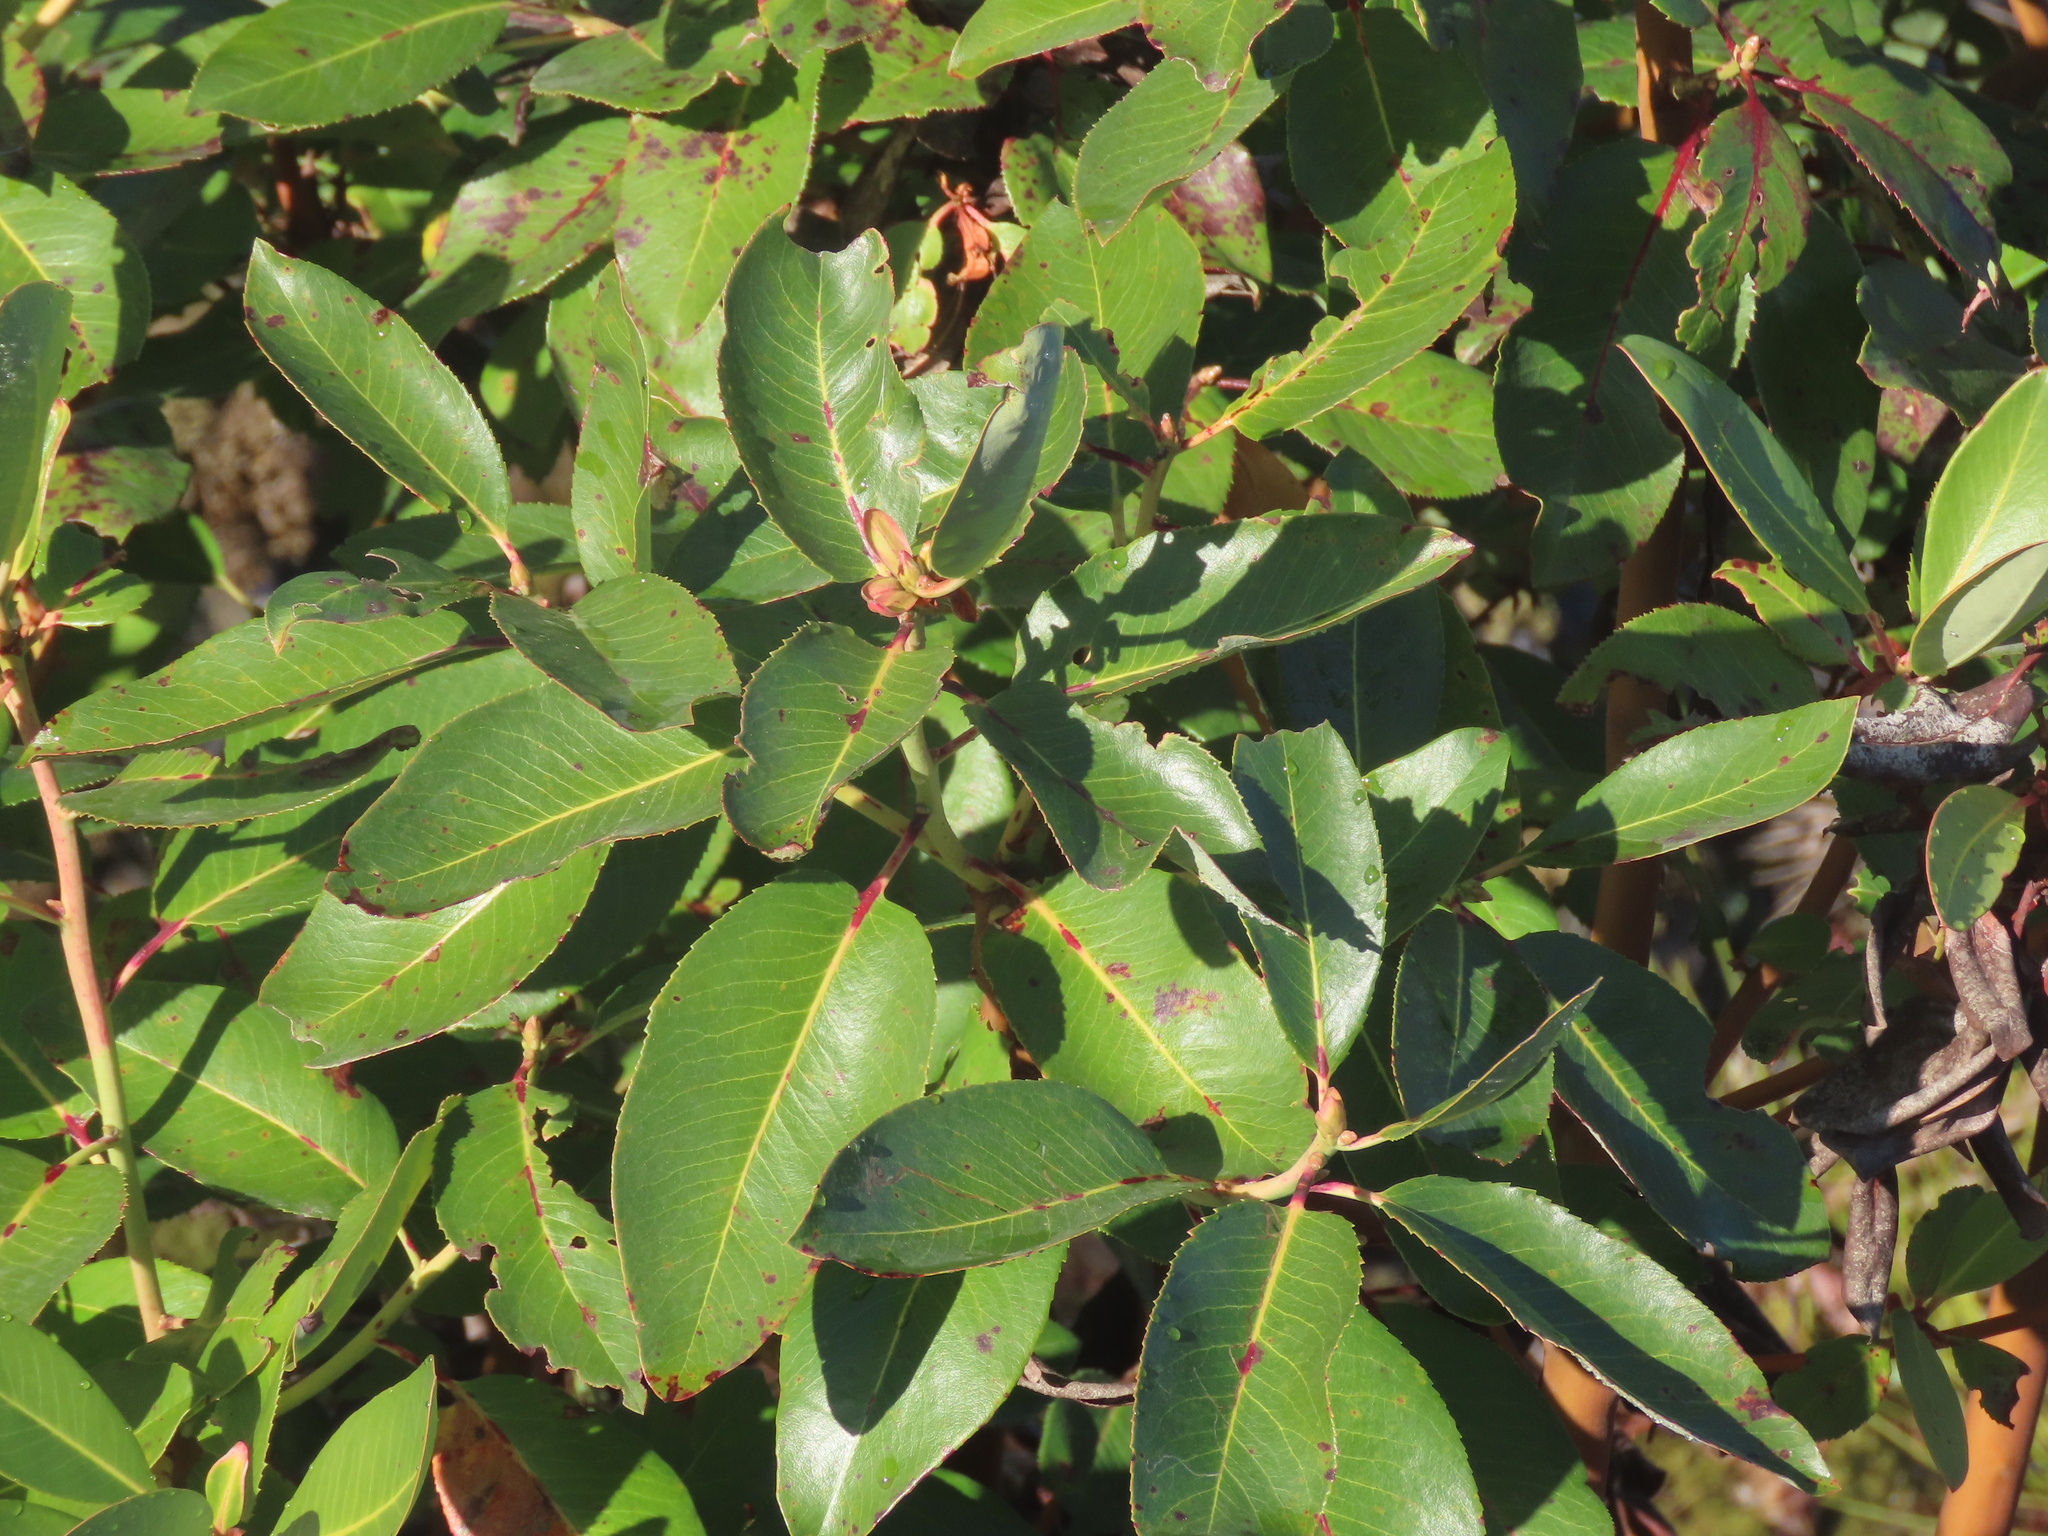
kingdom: Plantae
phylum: Tracheophyta
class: Magnoliopsida
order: Ericales
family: Ericaceae
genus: Arbutus
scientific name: Arbutus menziesii
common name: Pacific madrone
